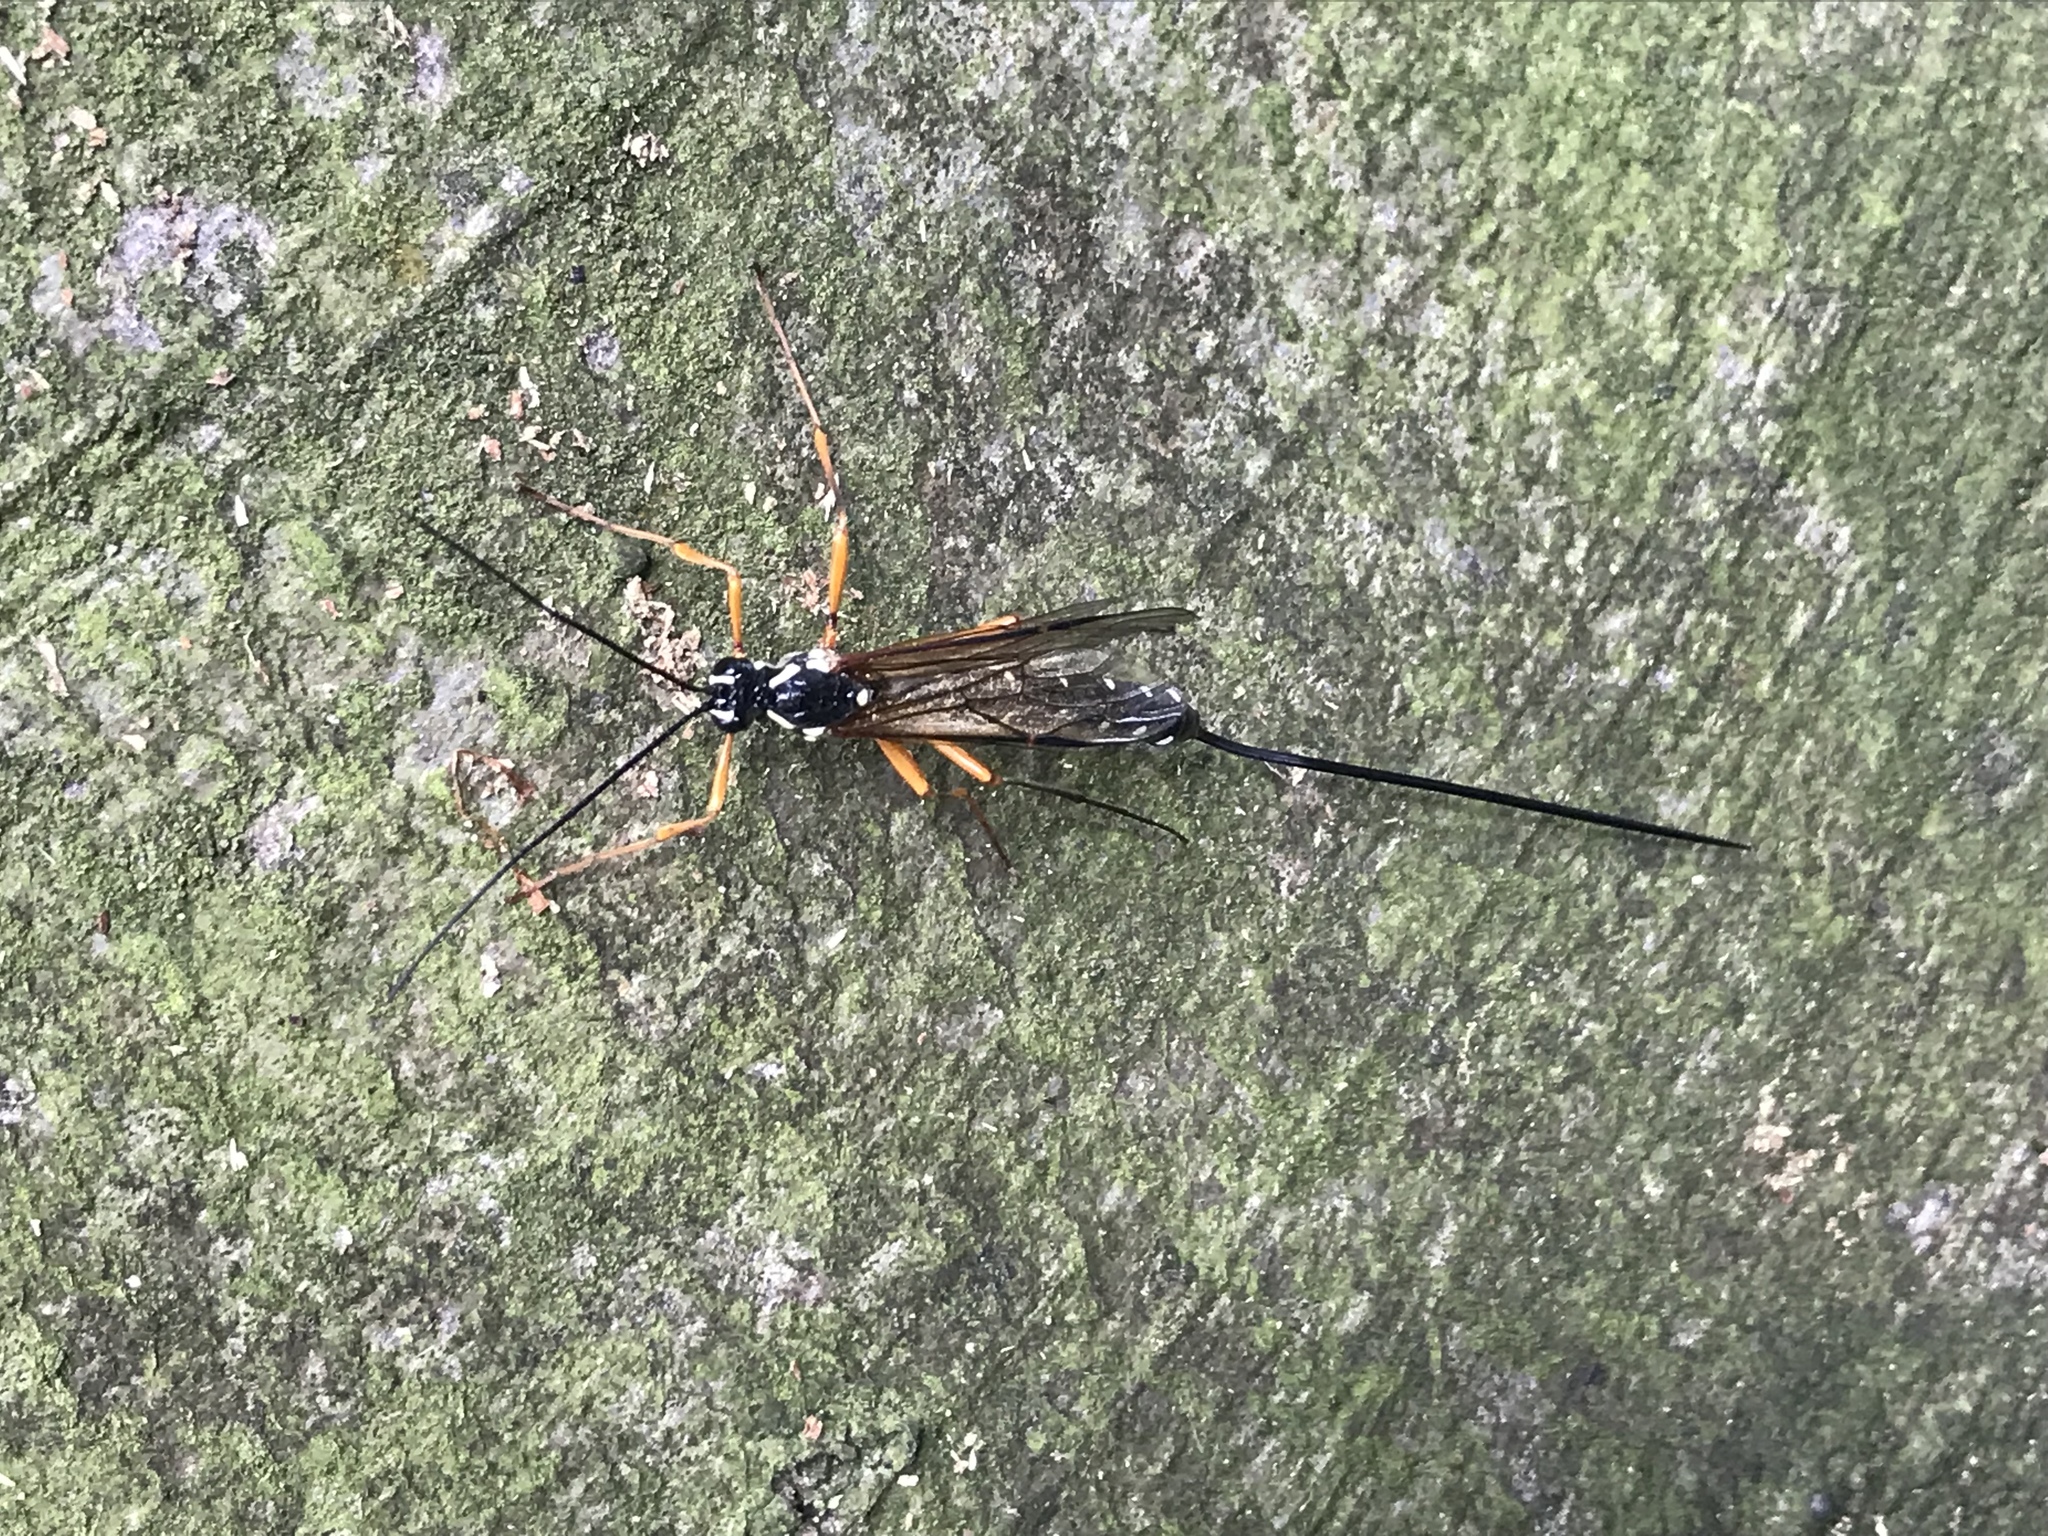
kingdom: Animalia
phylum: Arthropoda
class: Insecta
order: Hymenoptera
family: Ichneumonidae
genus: Rhyssa
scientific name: Rhyssa persuasoria
